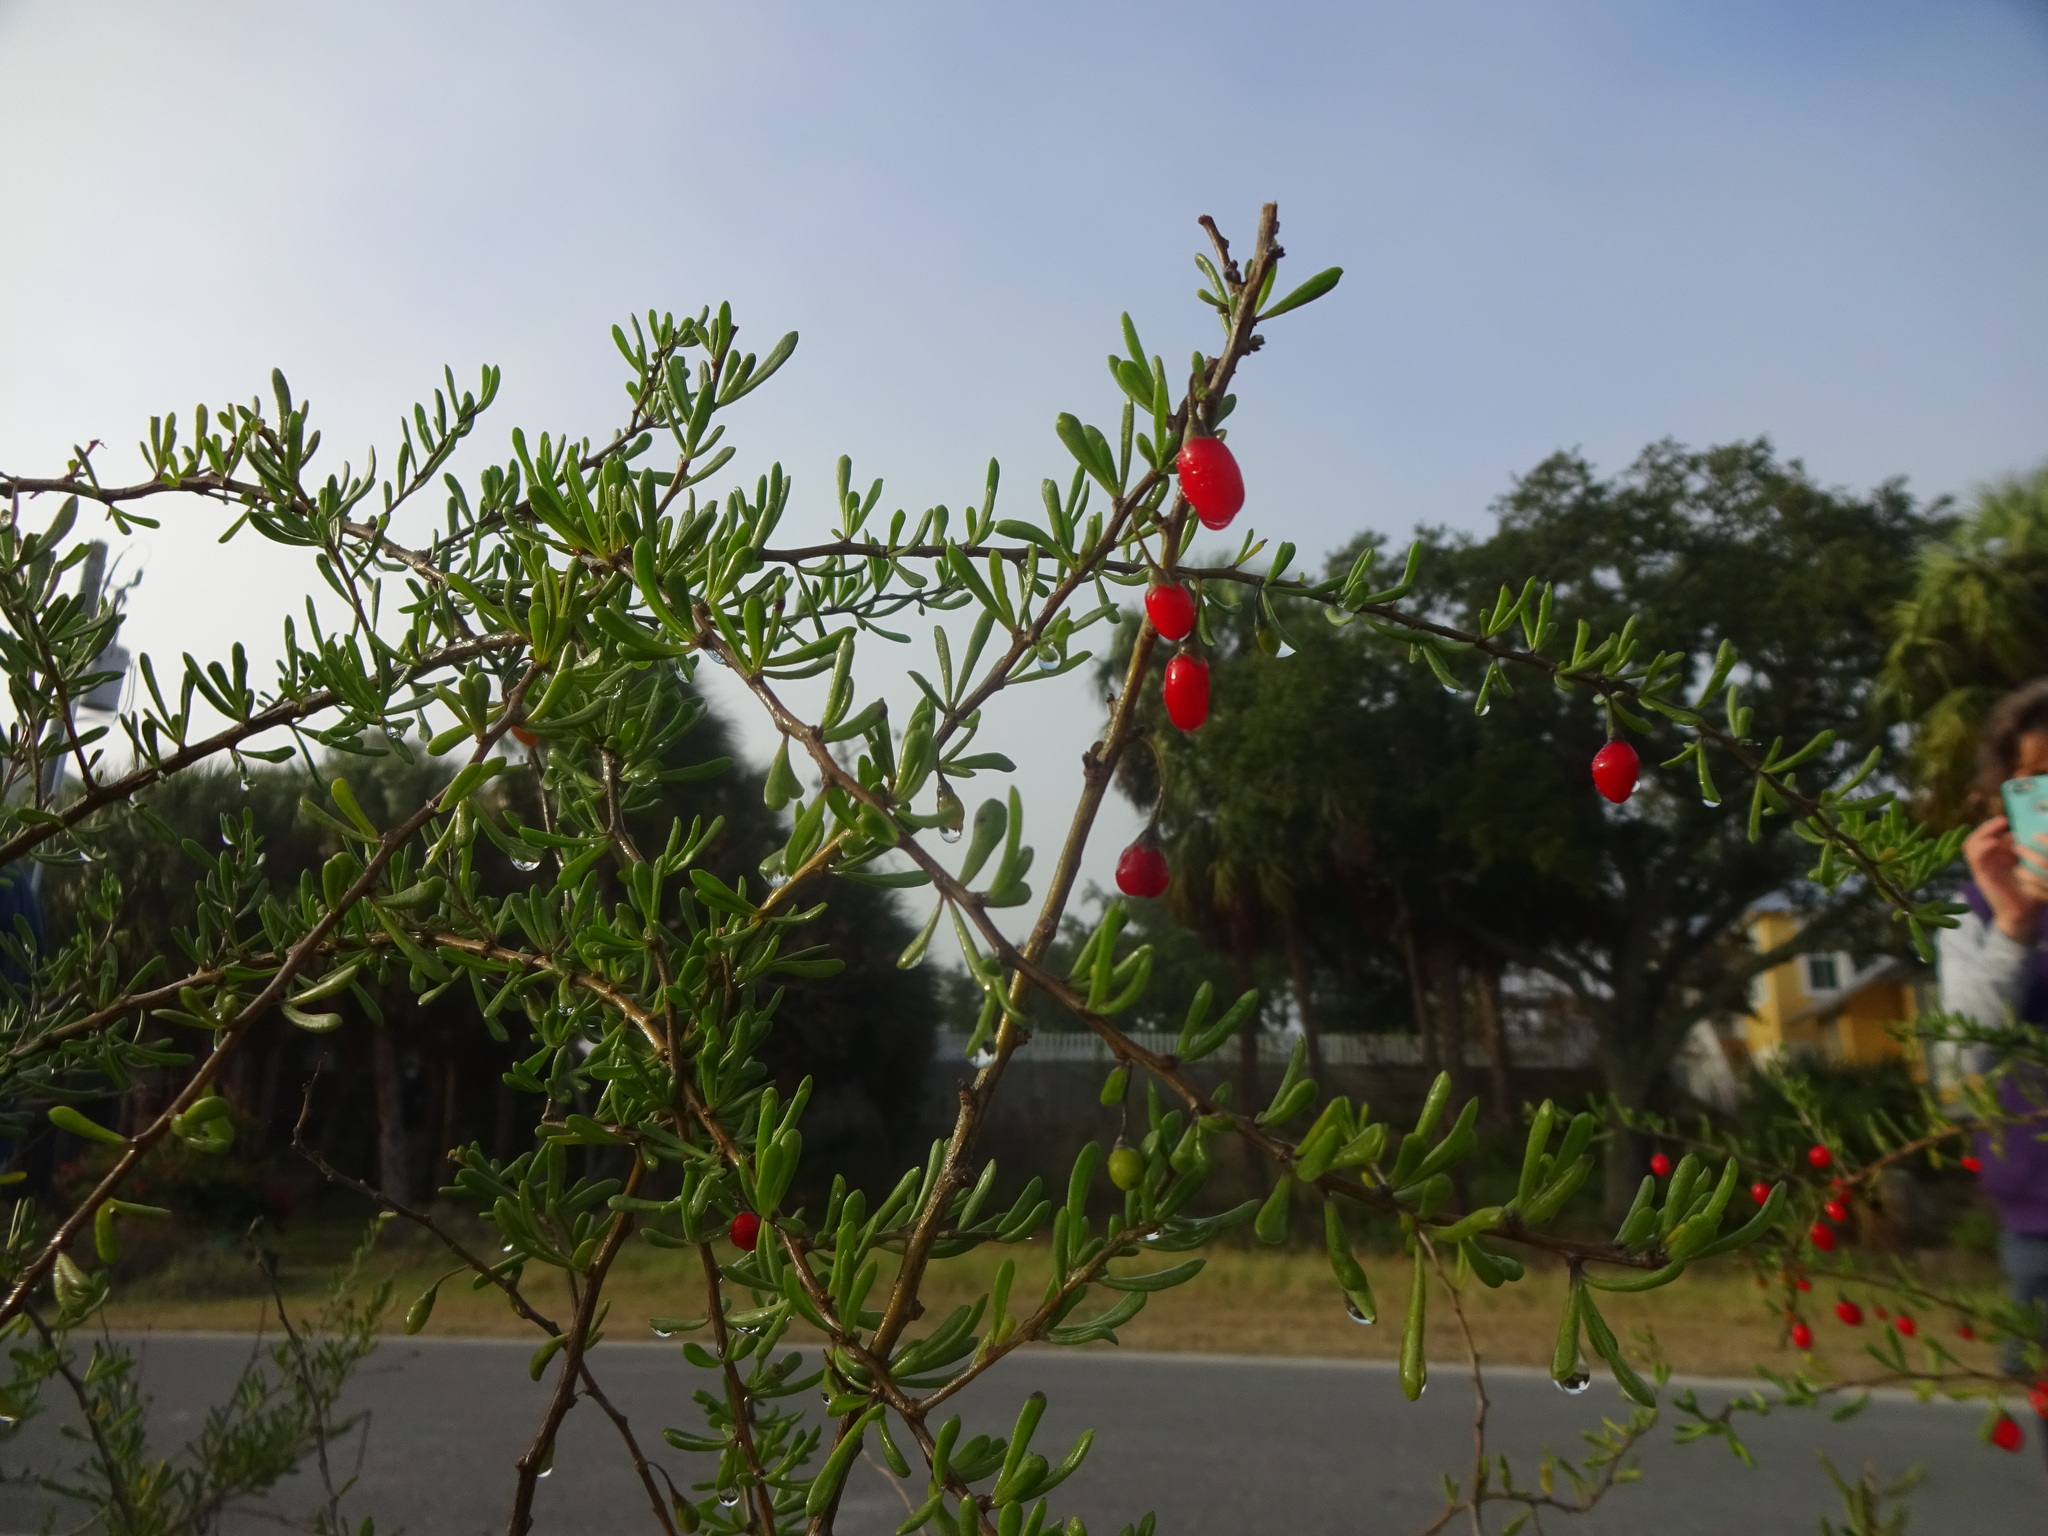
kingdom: Plantae
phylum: Tracheophyta
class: Magnoliopsida
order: Solanales
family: Solanaceae
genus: Lycium
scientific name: Lycium carolinianum
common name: Christmasberry
